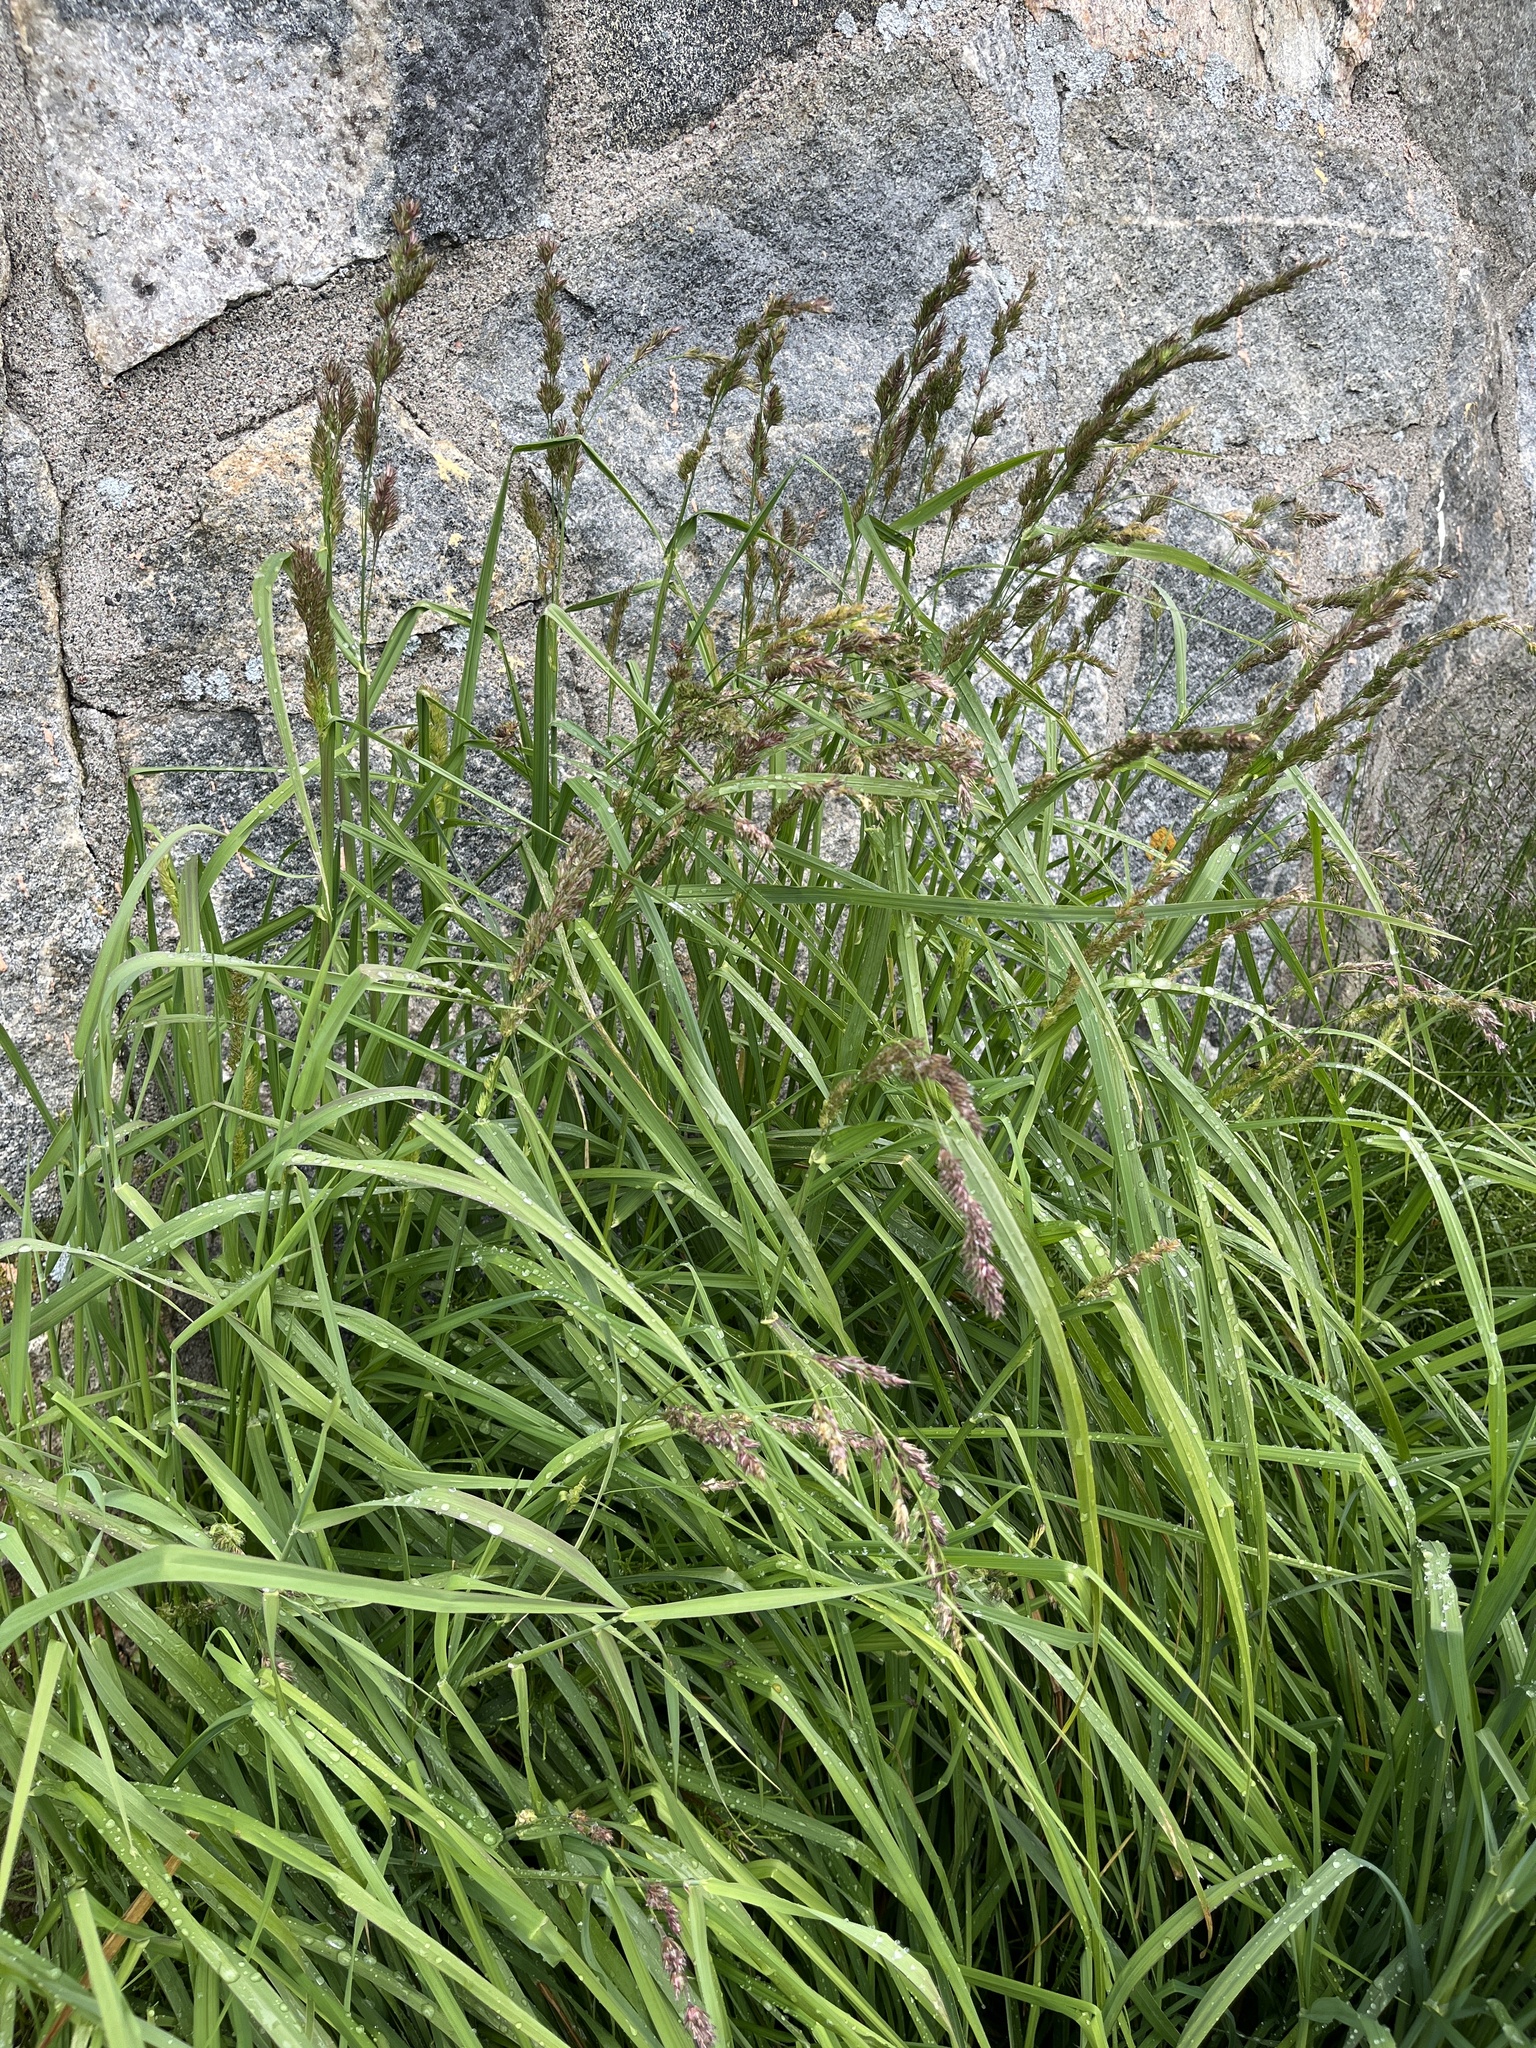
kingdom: Plantae
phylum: Tracheophyta
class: Liliopsida
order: Poales
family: Poaceae
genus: Dactylis
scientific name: Dactylis glomerata
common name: Orchardgrass
